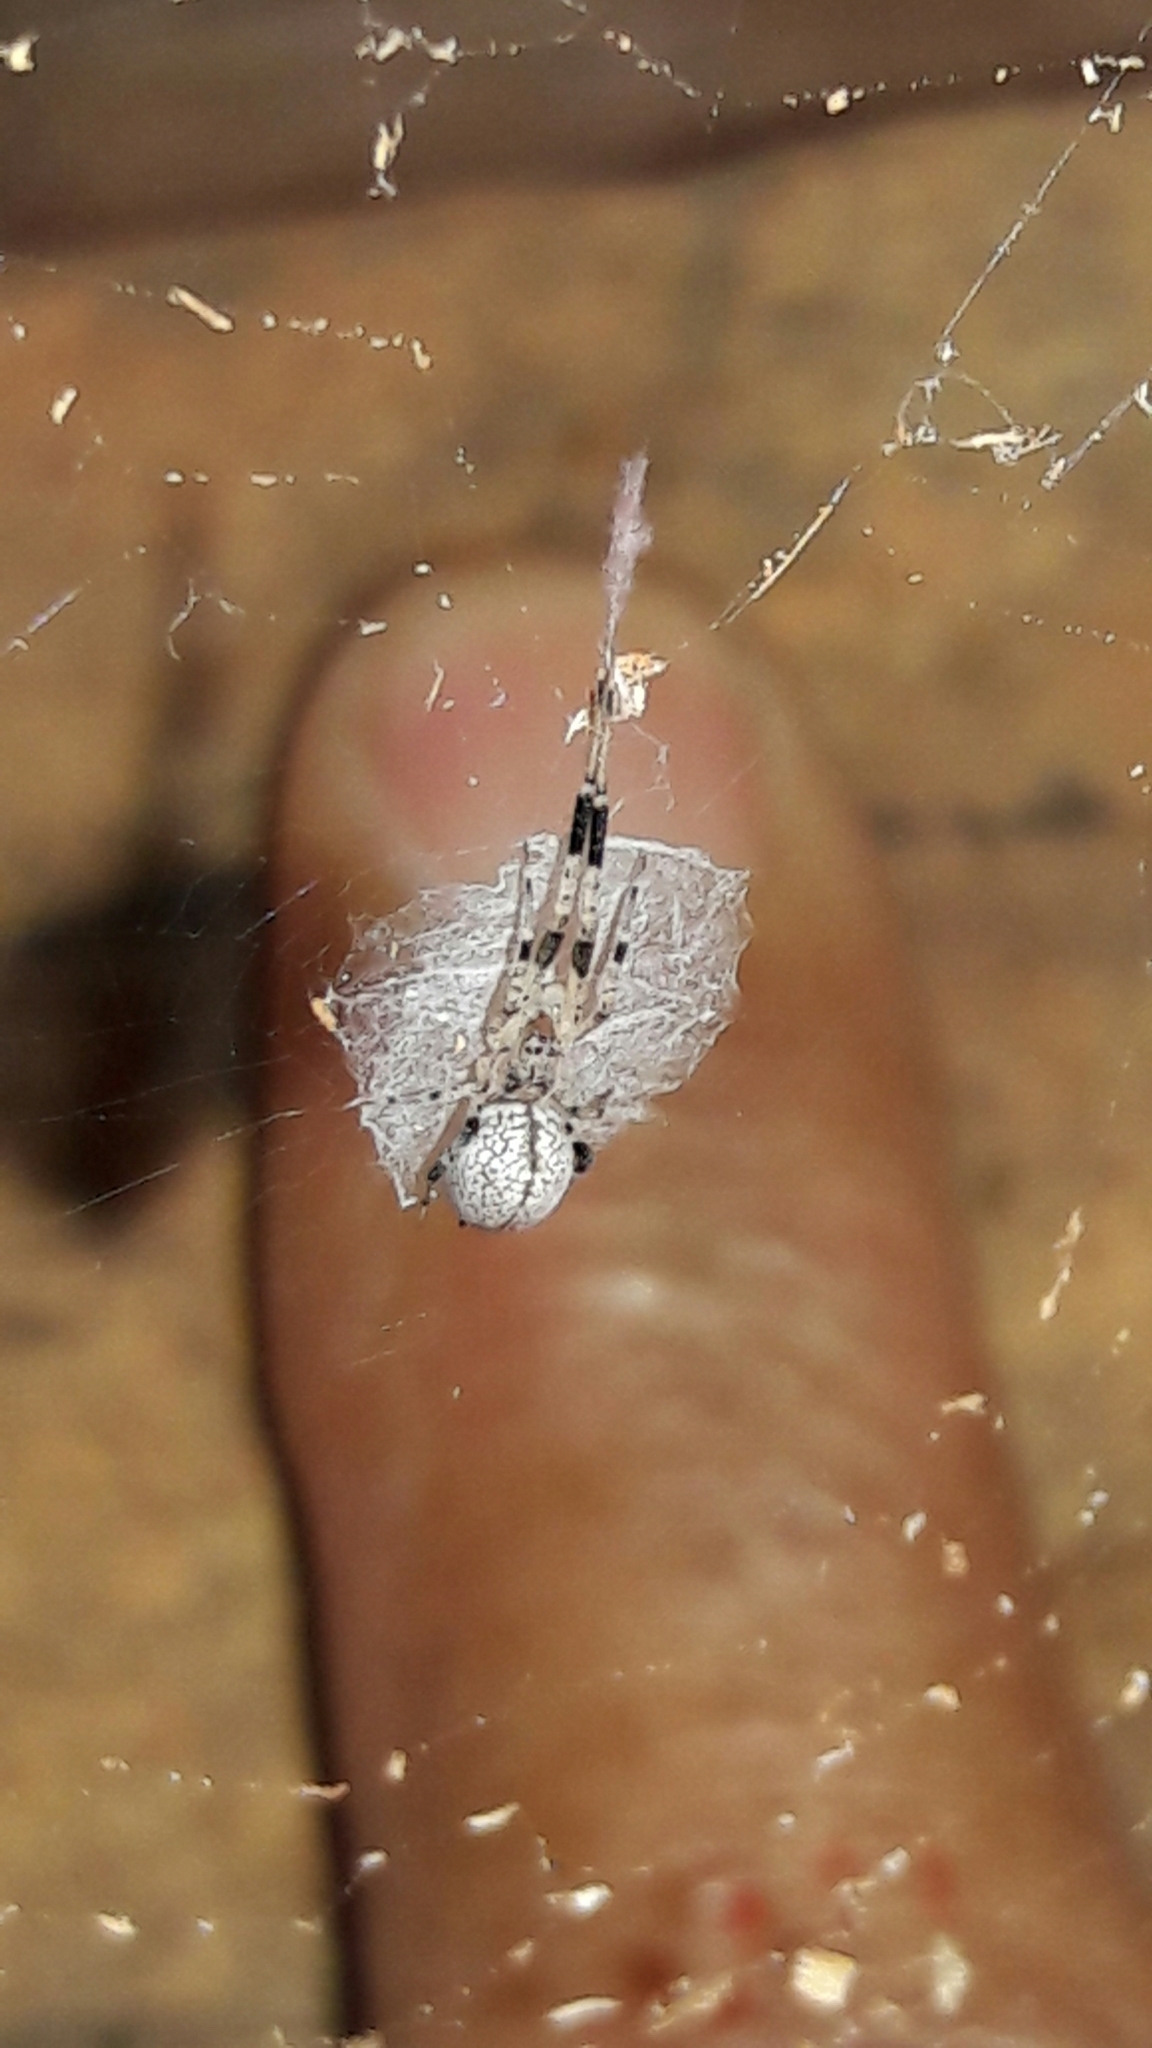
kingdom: Animalia
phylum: Arthropoda
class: Arachnida
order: Araneae
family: Uloboridae
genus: Zosis
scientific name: Zosis geniculata
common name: Hackled orb weavers
